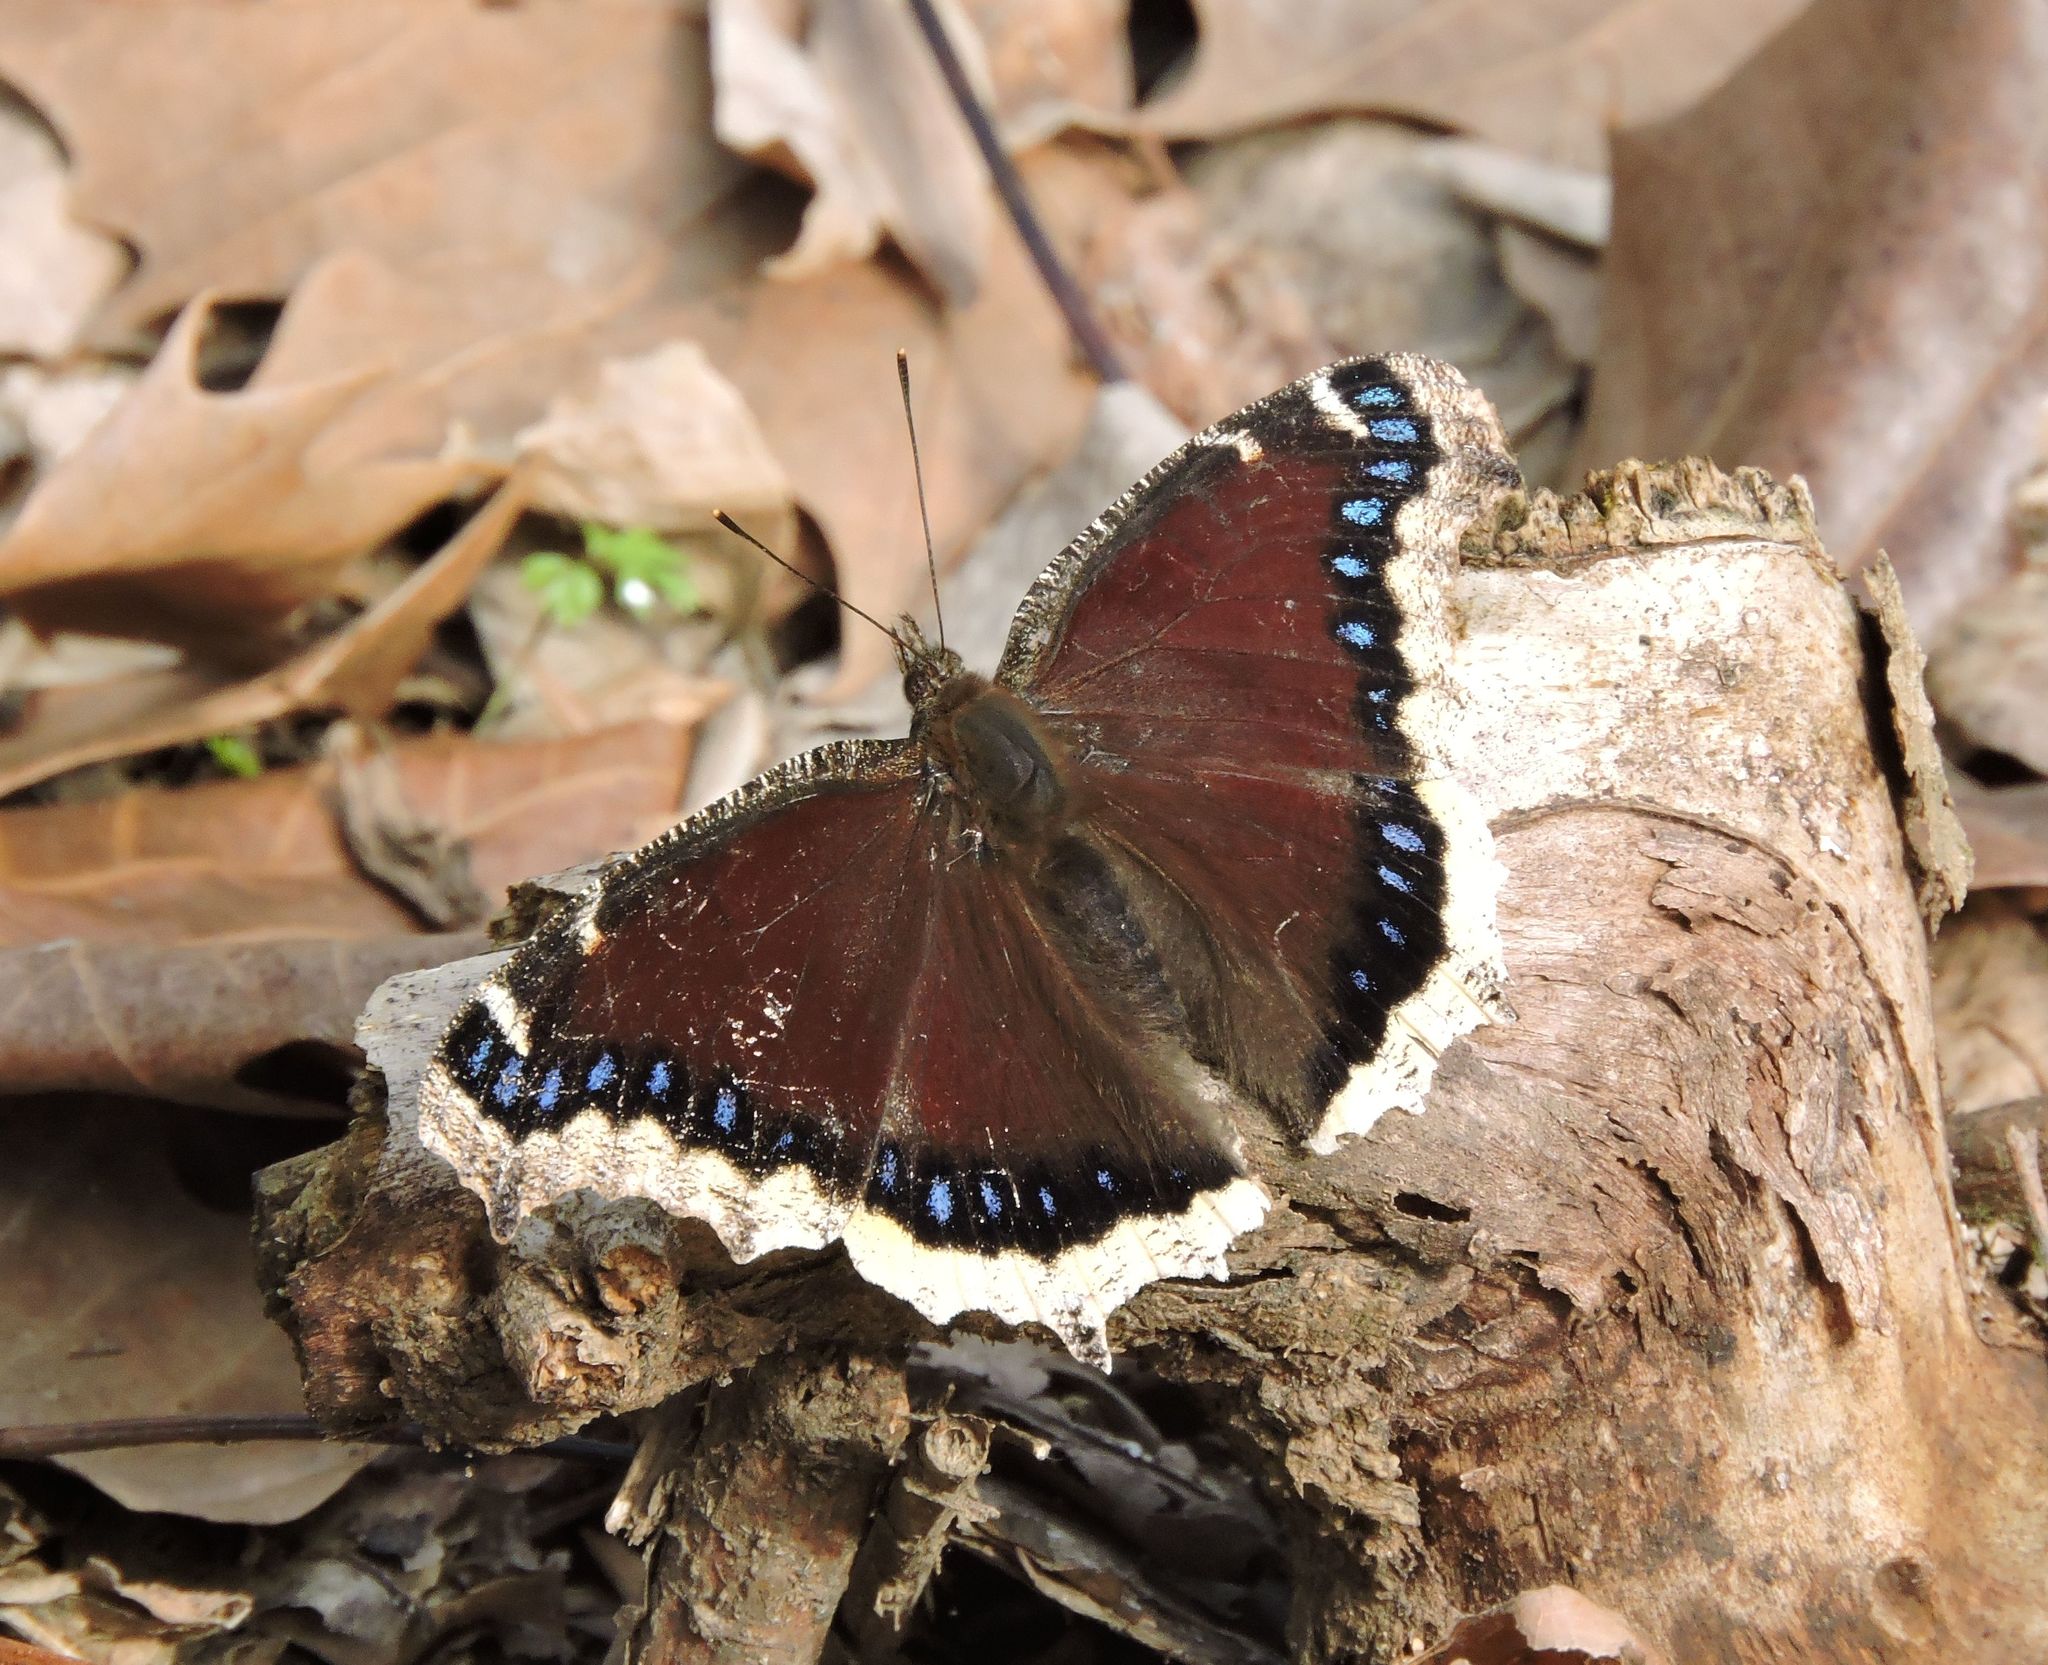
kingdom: Animalia
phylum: Arthropoda
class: Insecta
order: Lepidoptera
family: Nymphalidae
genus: Nymphalis
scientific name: Nymphalis antiopa
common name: Camberwell beauty
